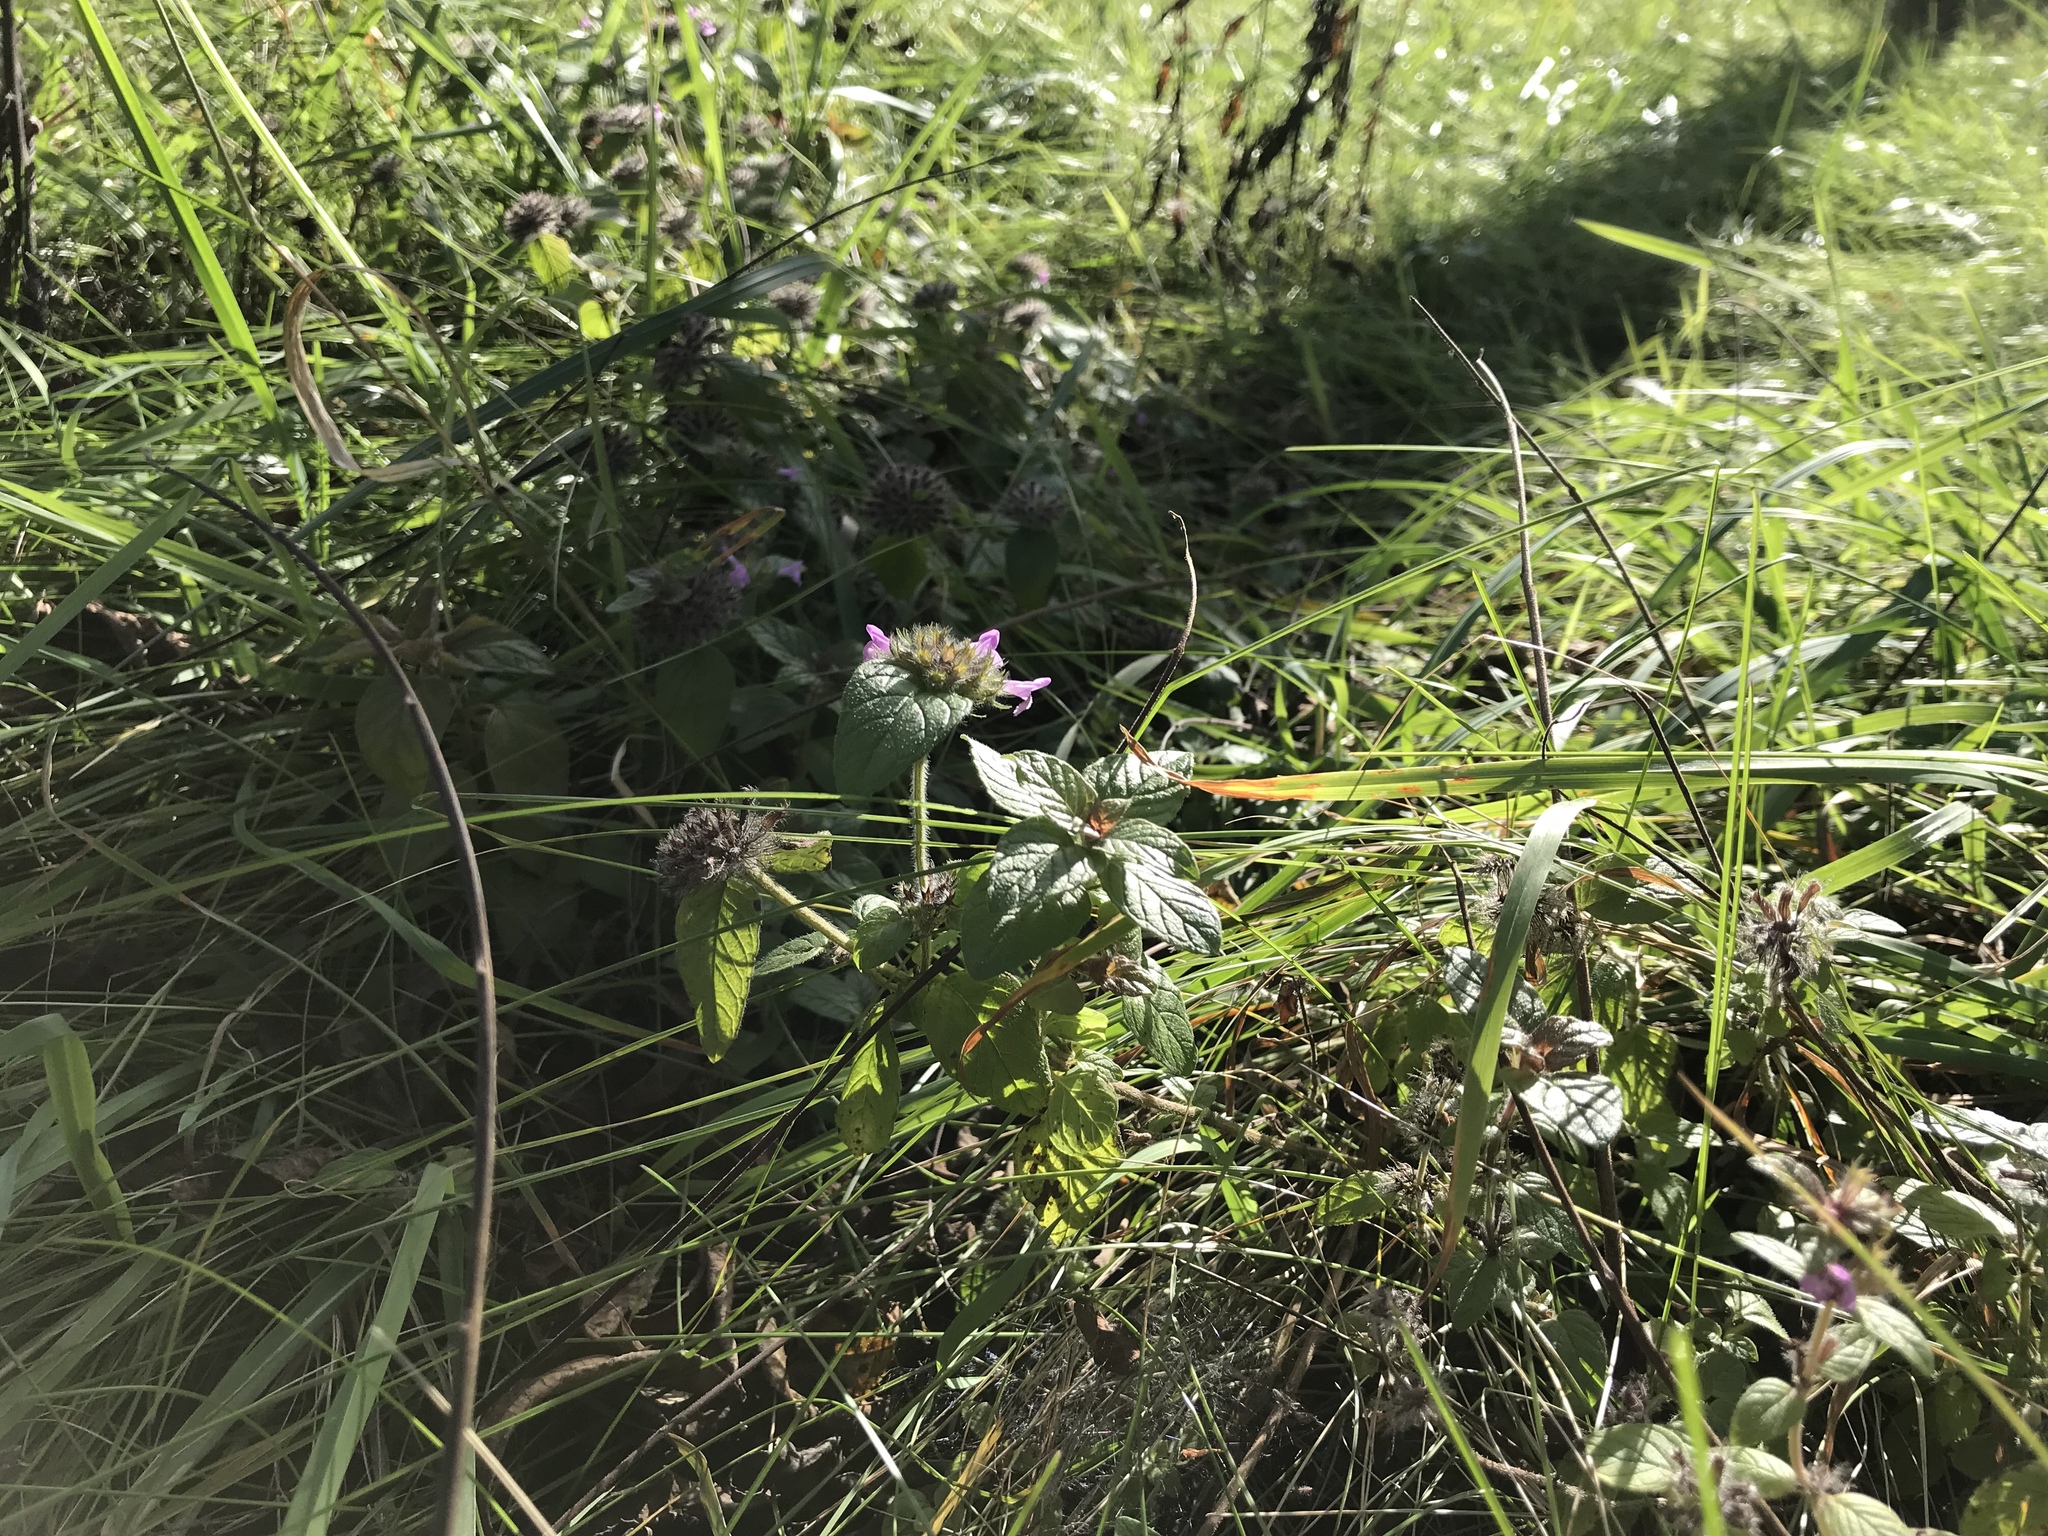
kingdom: Plantae
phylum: Tracheophyta
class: Magnoliopsida
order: Lamiales
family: Lamiaceae
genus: Clinopodium
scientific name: Clinopodium vulgare
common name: Wild basil
